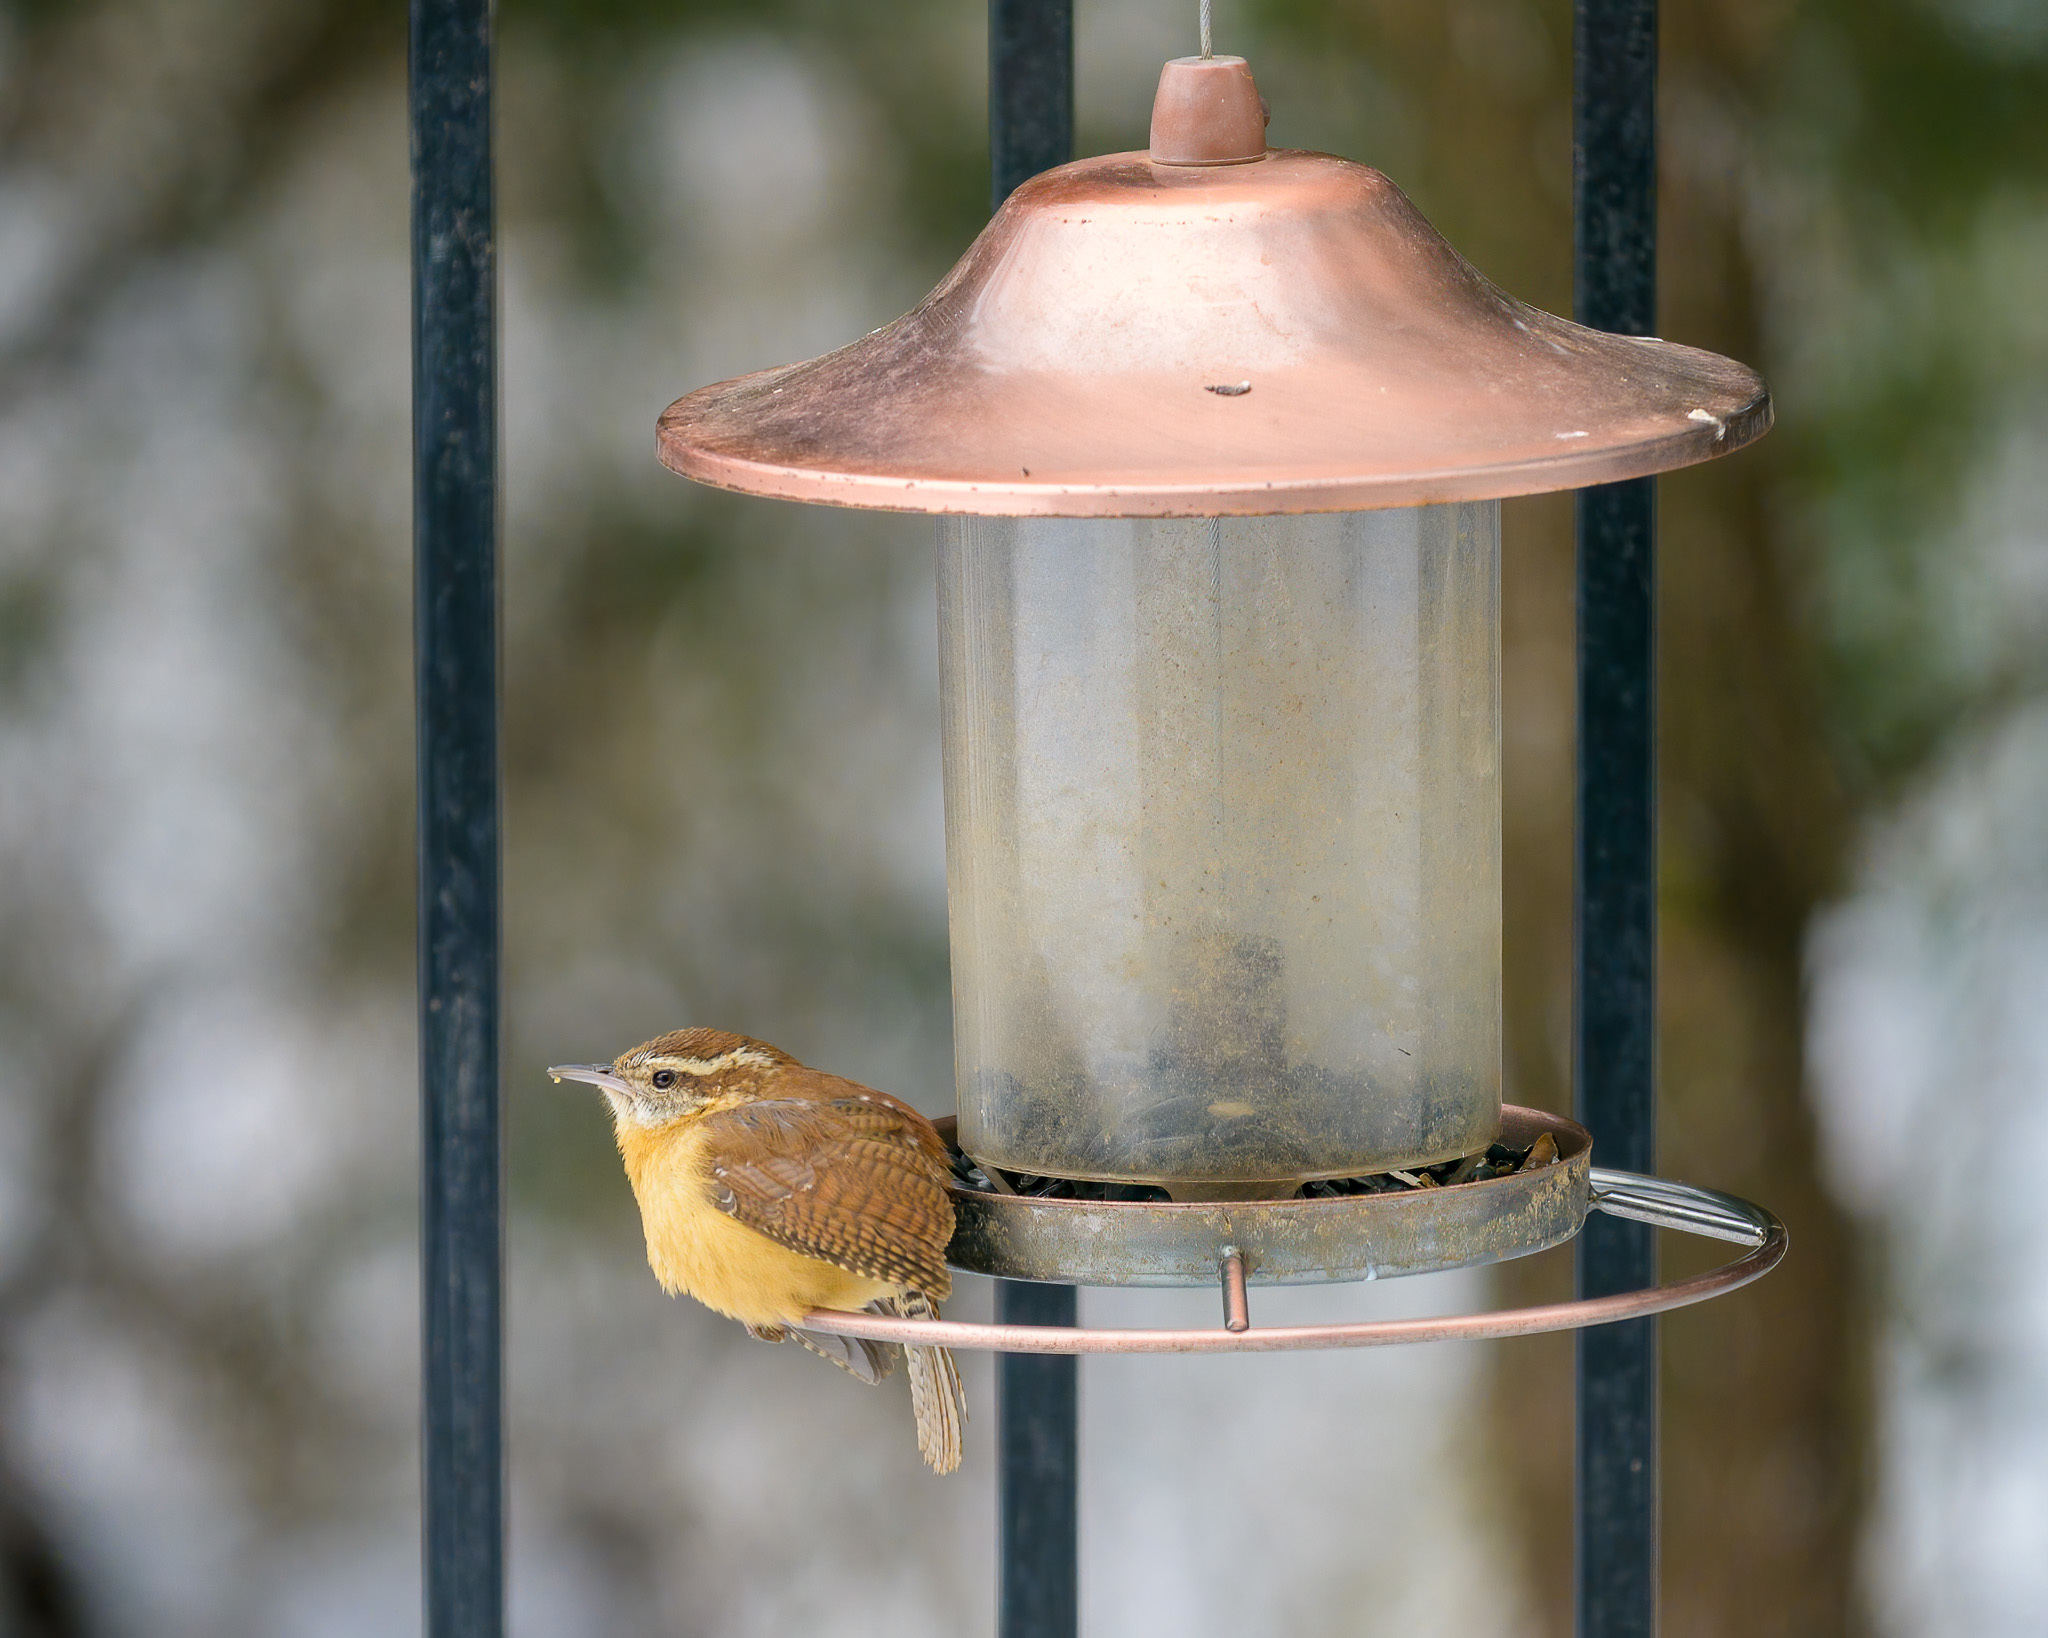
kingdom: Animalia
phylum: Chordata
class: Aves
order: Passeriformes
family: Troglodytidae
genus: Thryothorus
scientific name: Thryothorus ludovicianus
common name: Carolina wren
